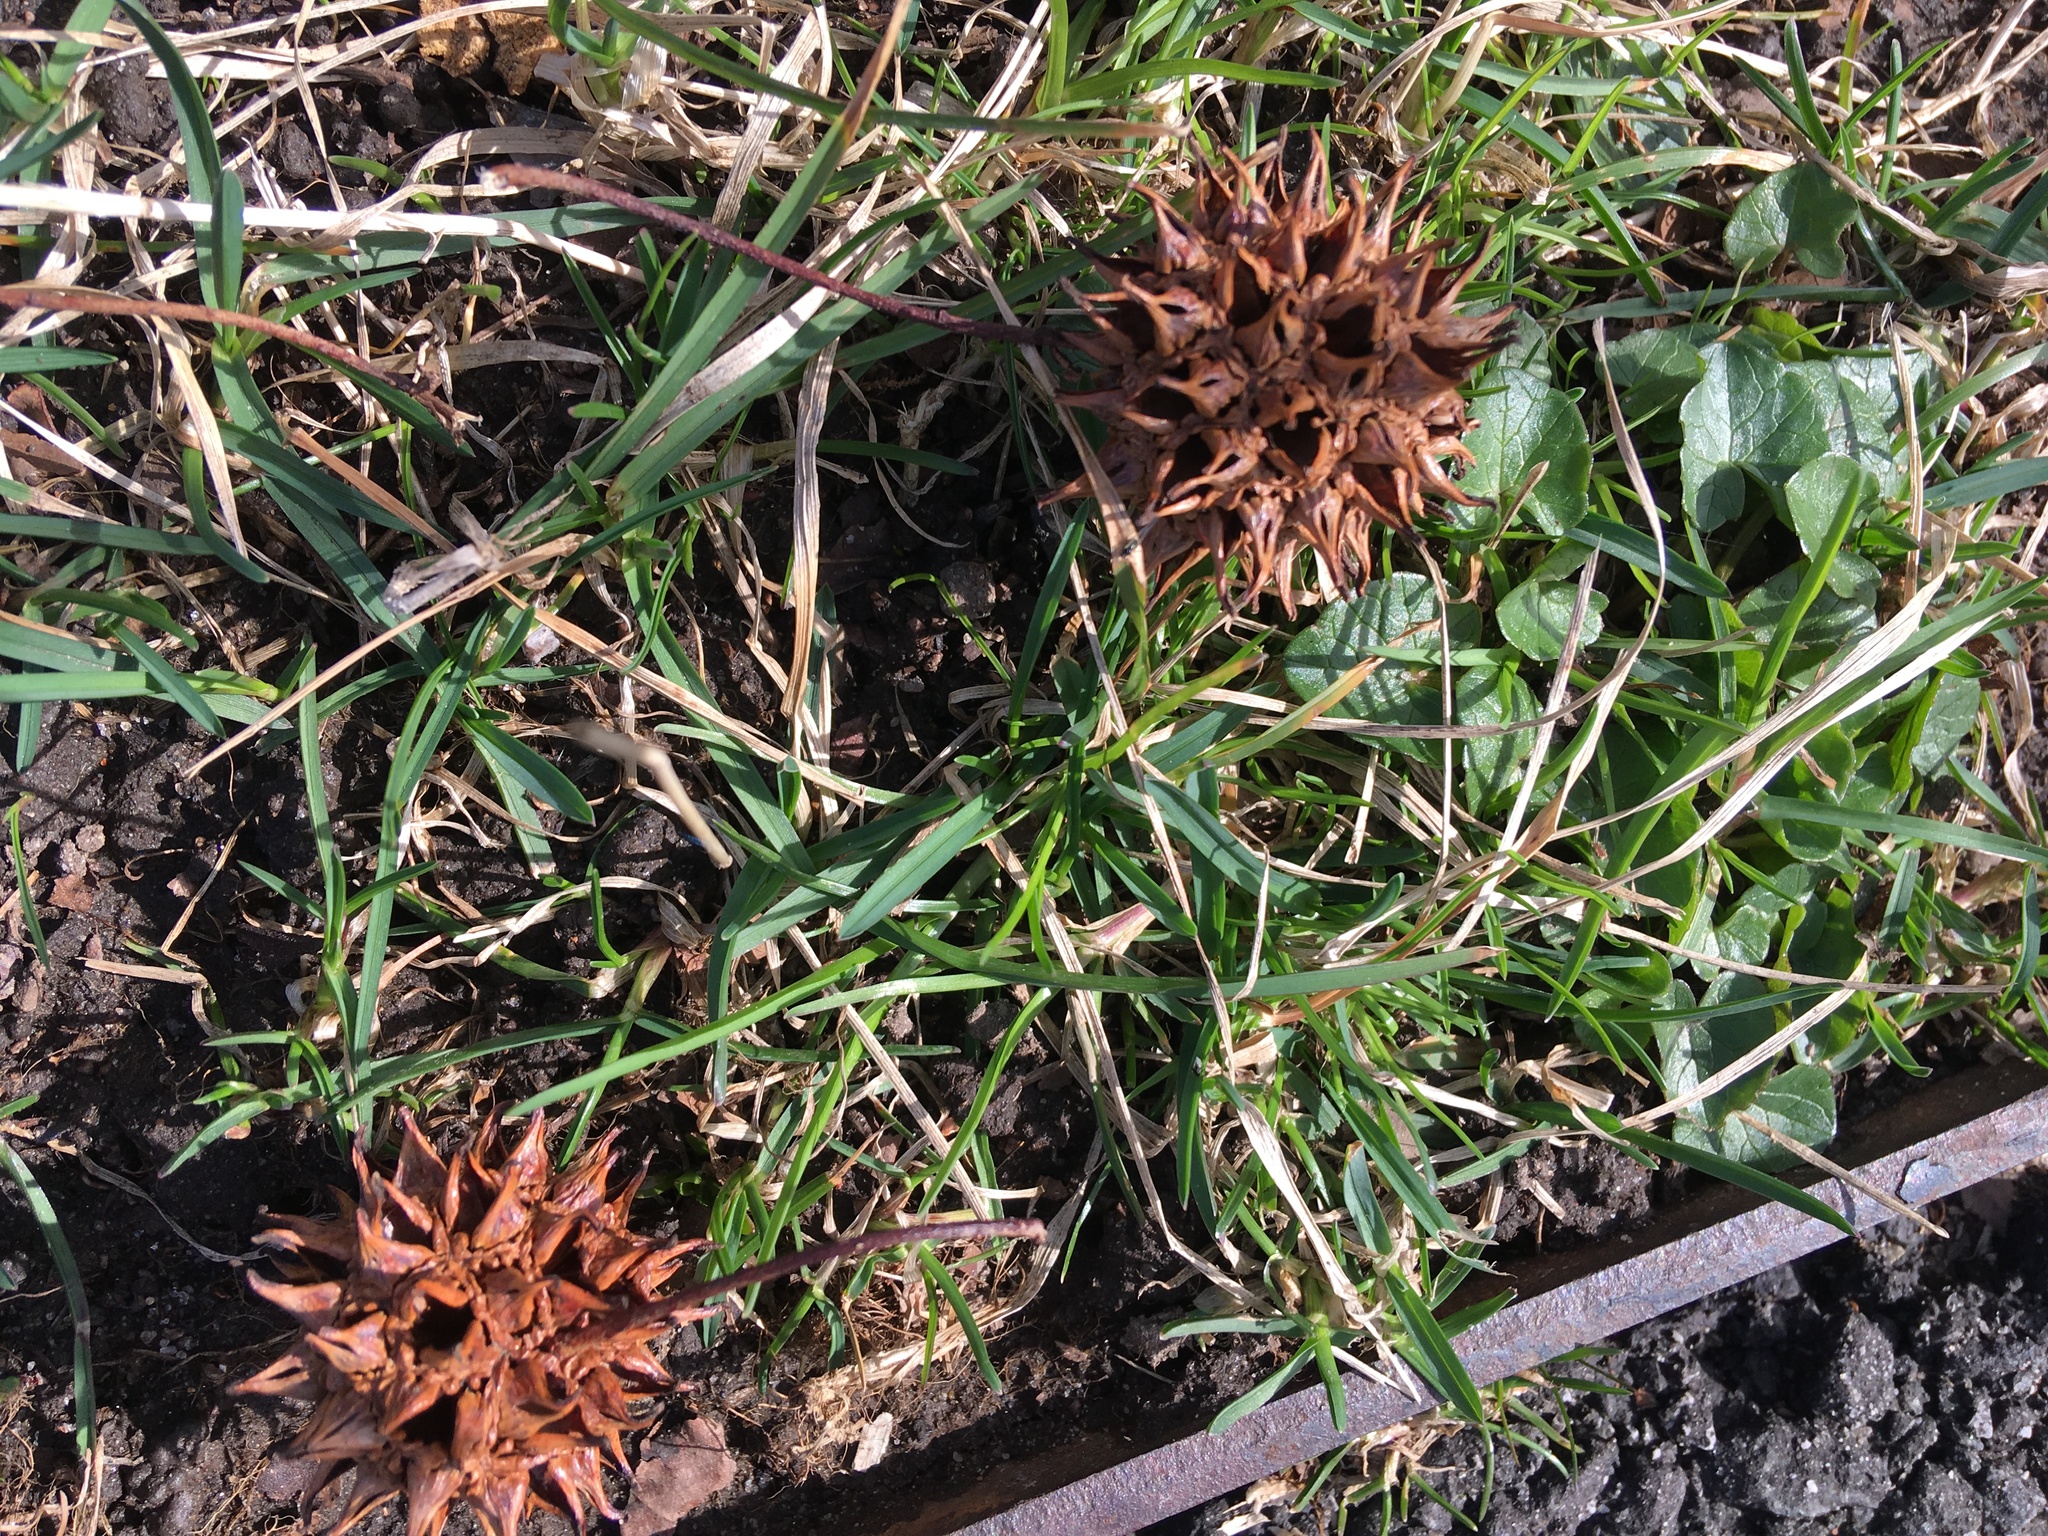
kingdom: Plantae
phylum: Tracheophyta
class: Magnoliopsida
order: Ranunculales
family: Ranunculaceae
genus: Ficaria
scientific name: Ficaria verna
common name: Lesser celandine
